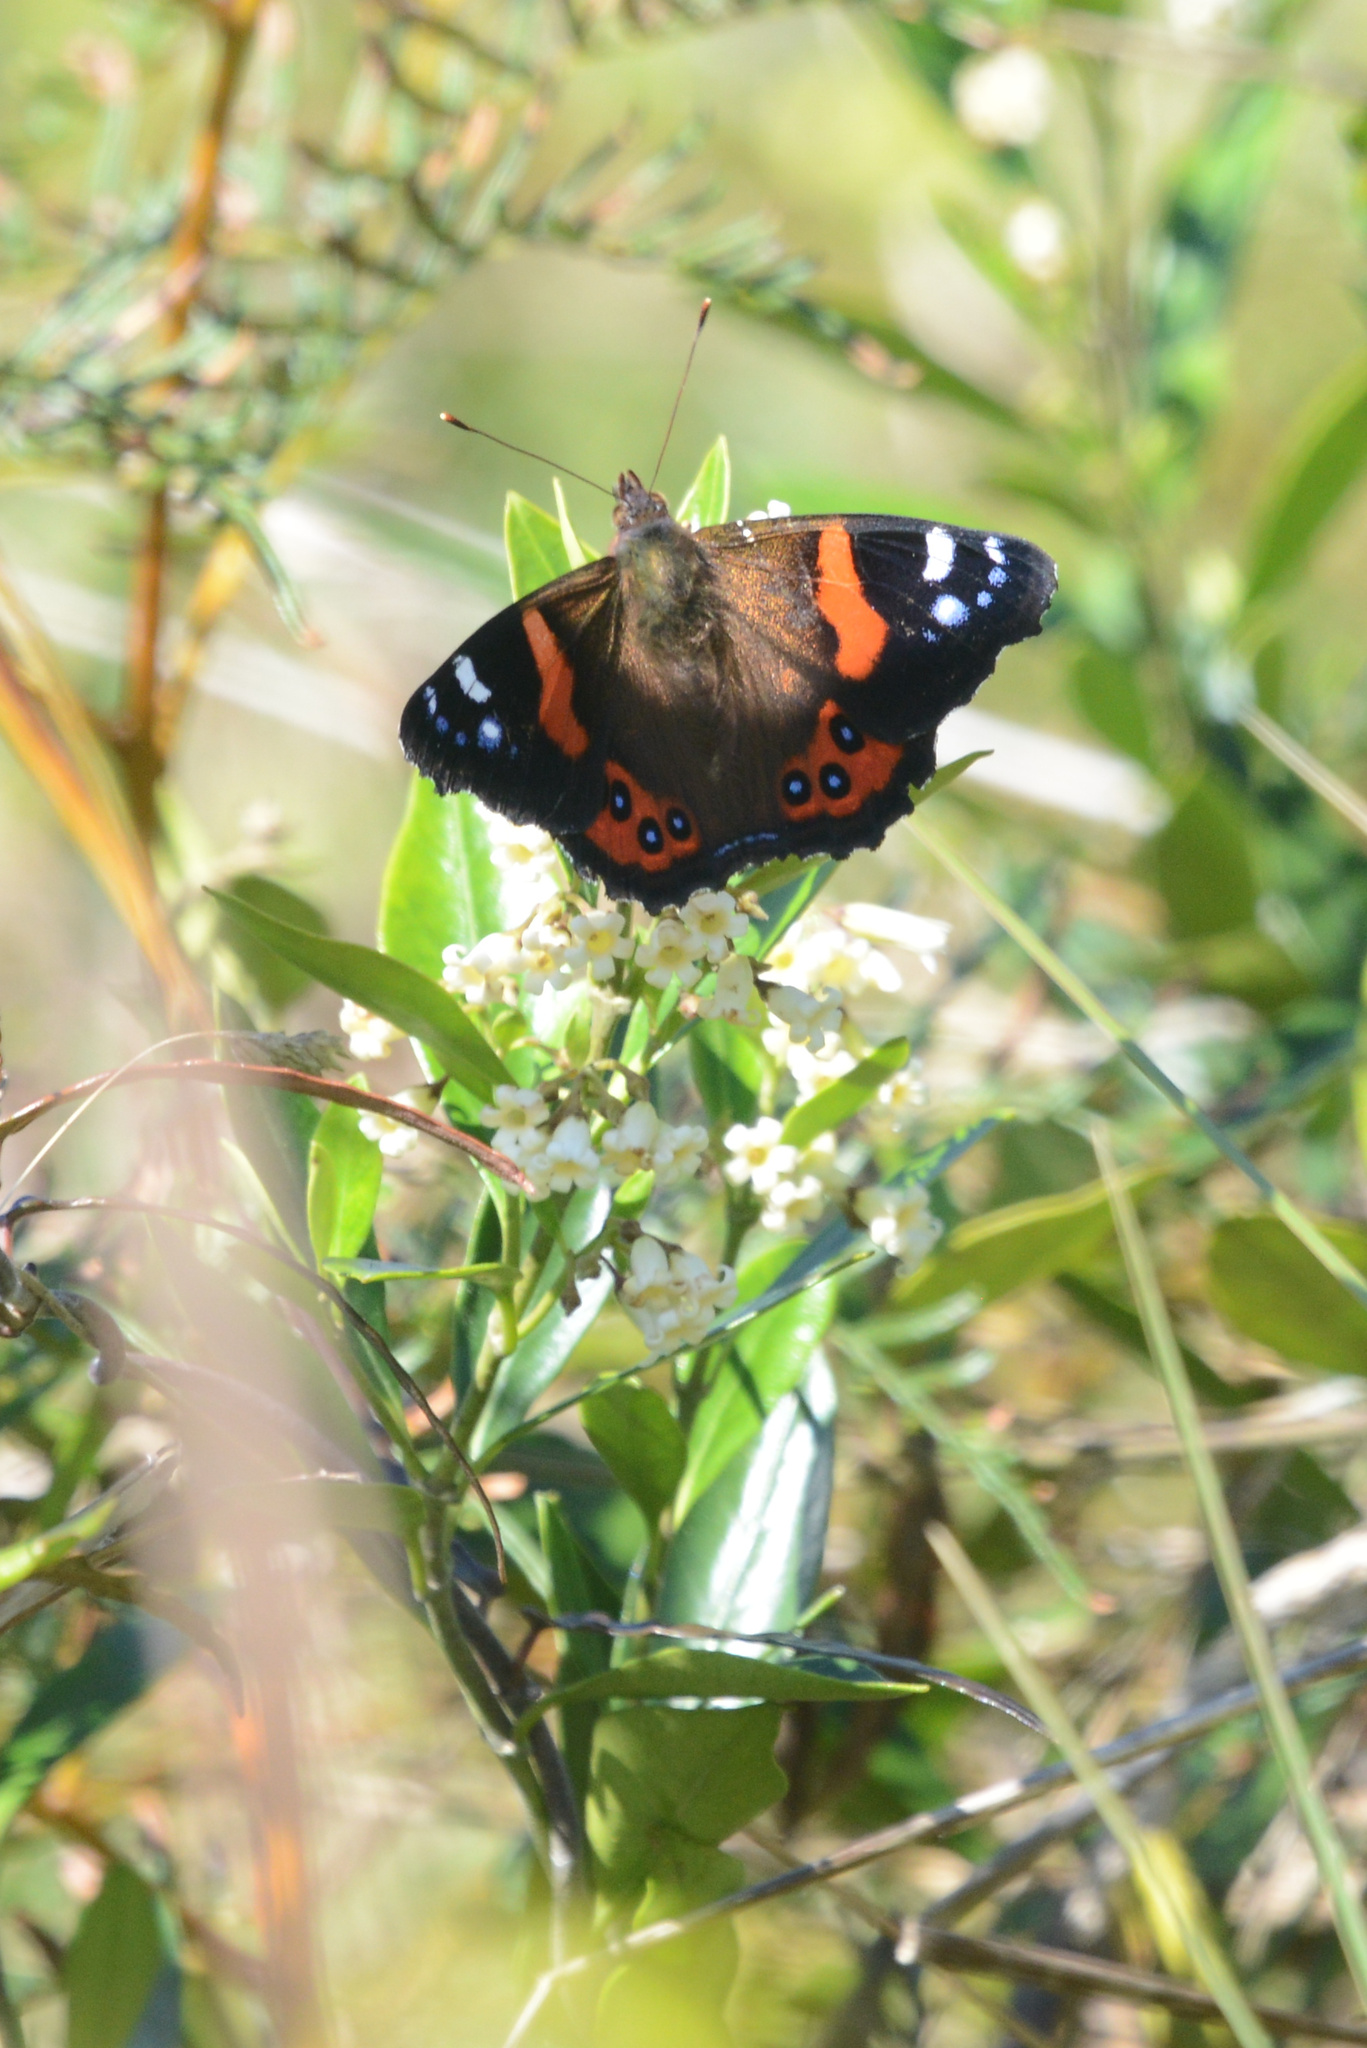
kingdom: Animalia
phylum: Arthropoda
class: Insecta
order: Lepidoptera
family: Nymphalidae
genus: Vanessa
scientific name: Vanessa gonerilla
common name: New zealand red admiral
